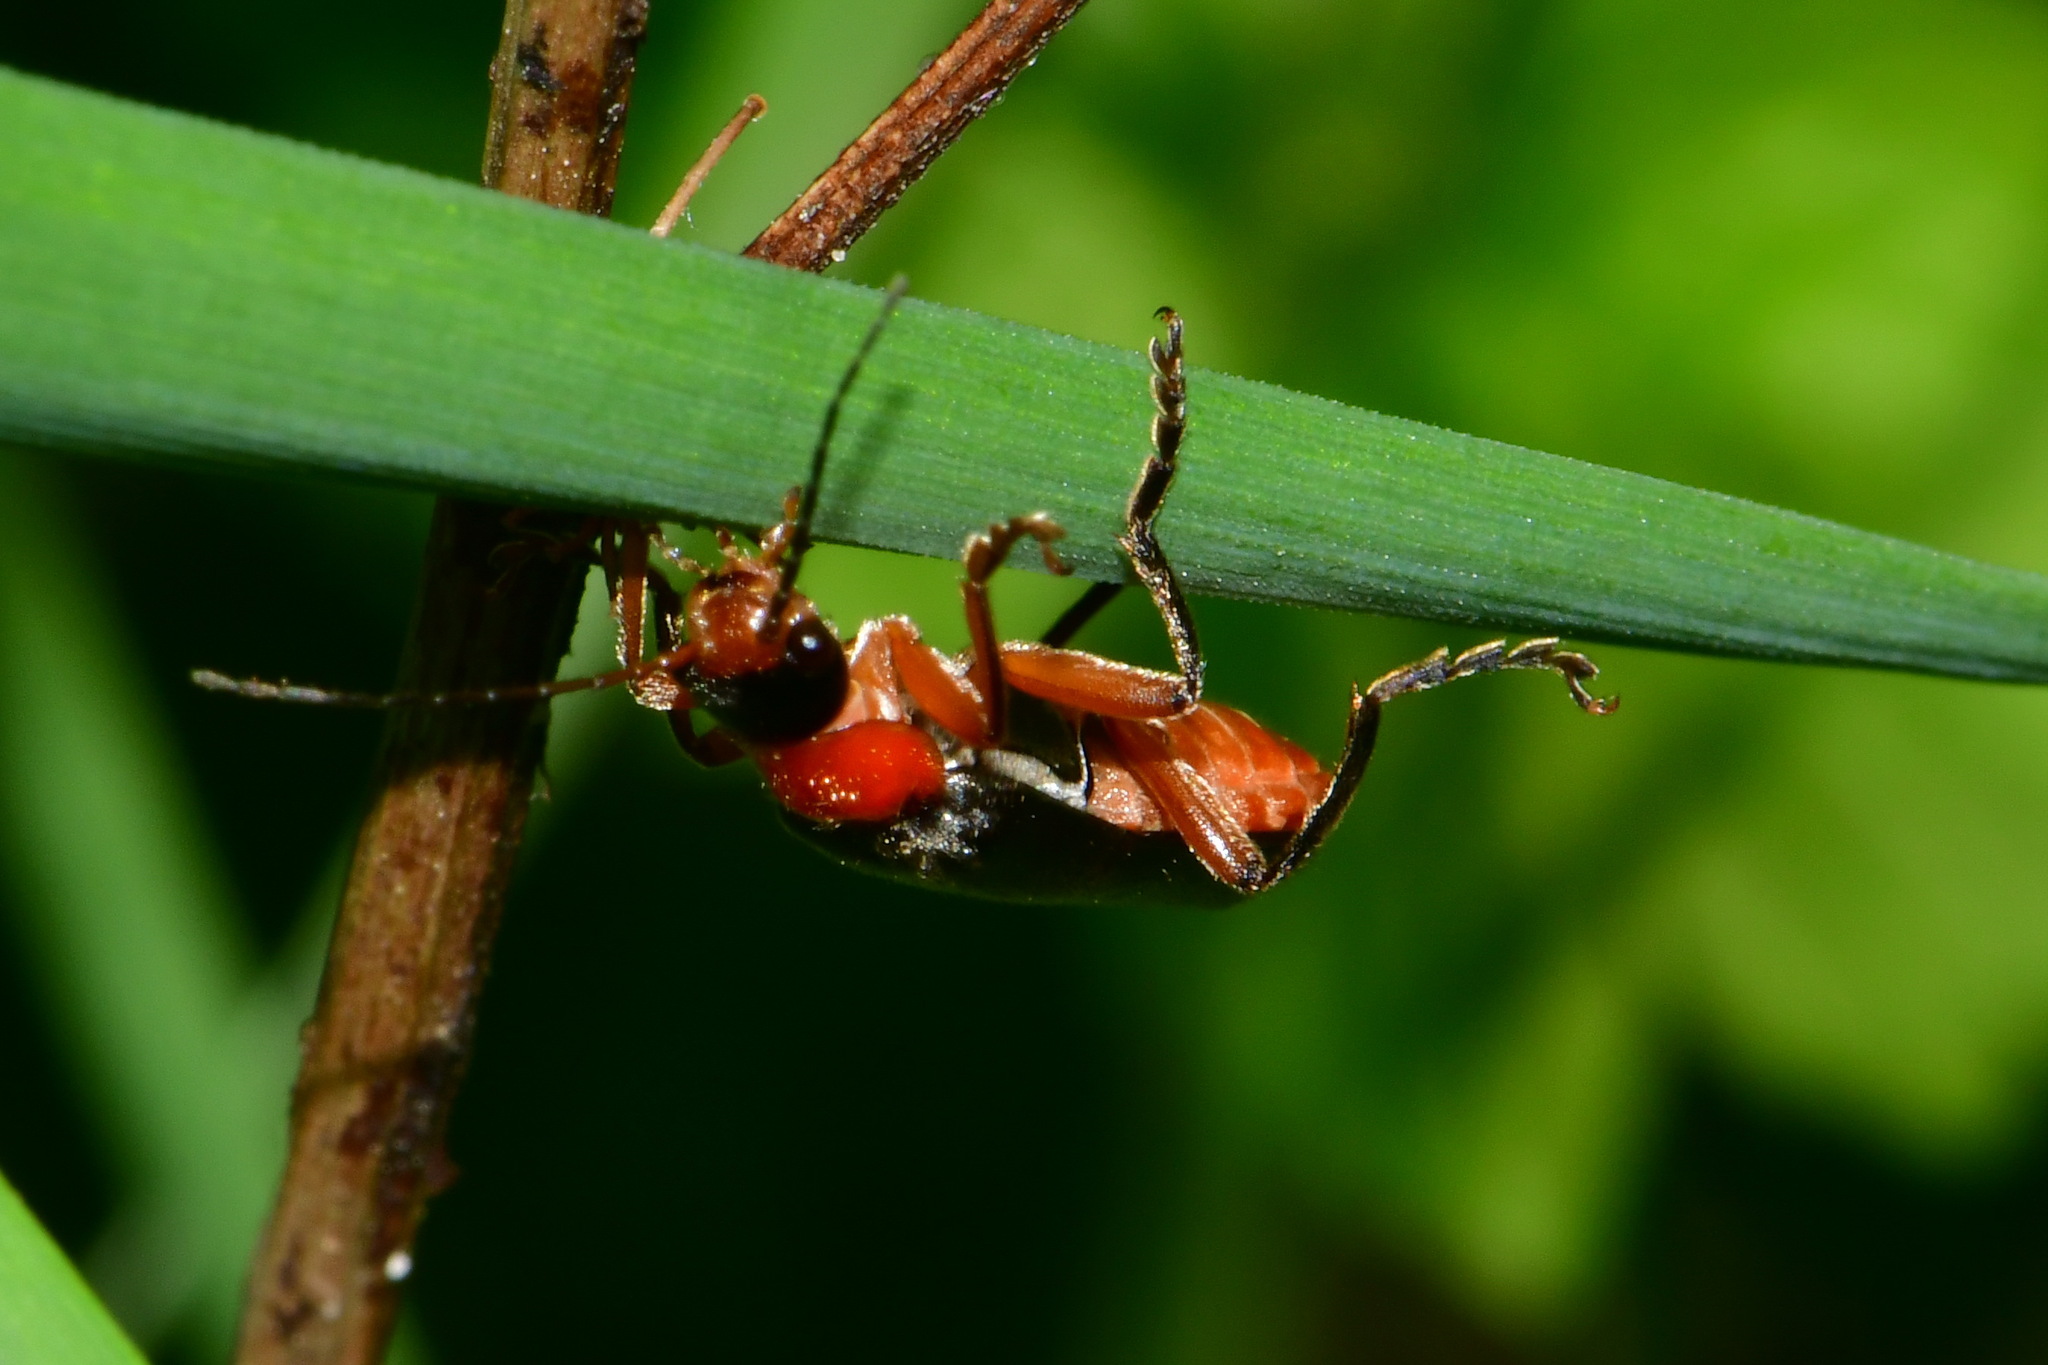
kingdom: Animalia
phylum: Arthropoda
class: Insecta
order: Coleoptera
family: Cantharidae
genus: Cantharis
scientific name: Cantharis pellucida
